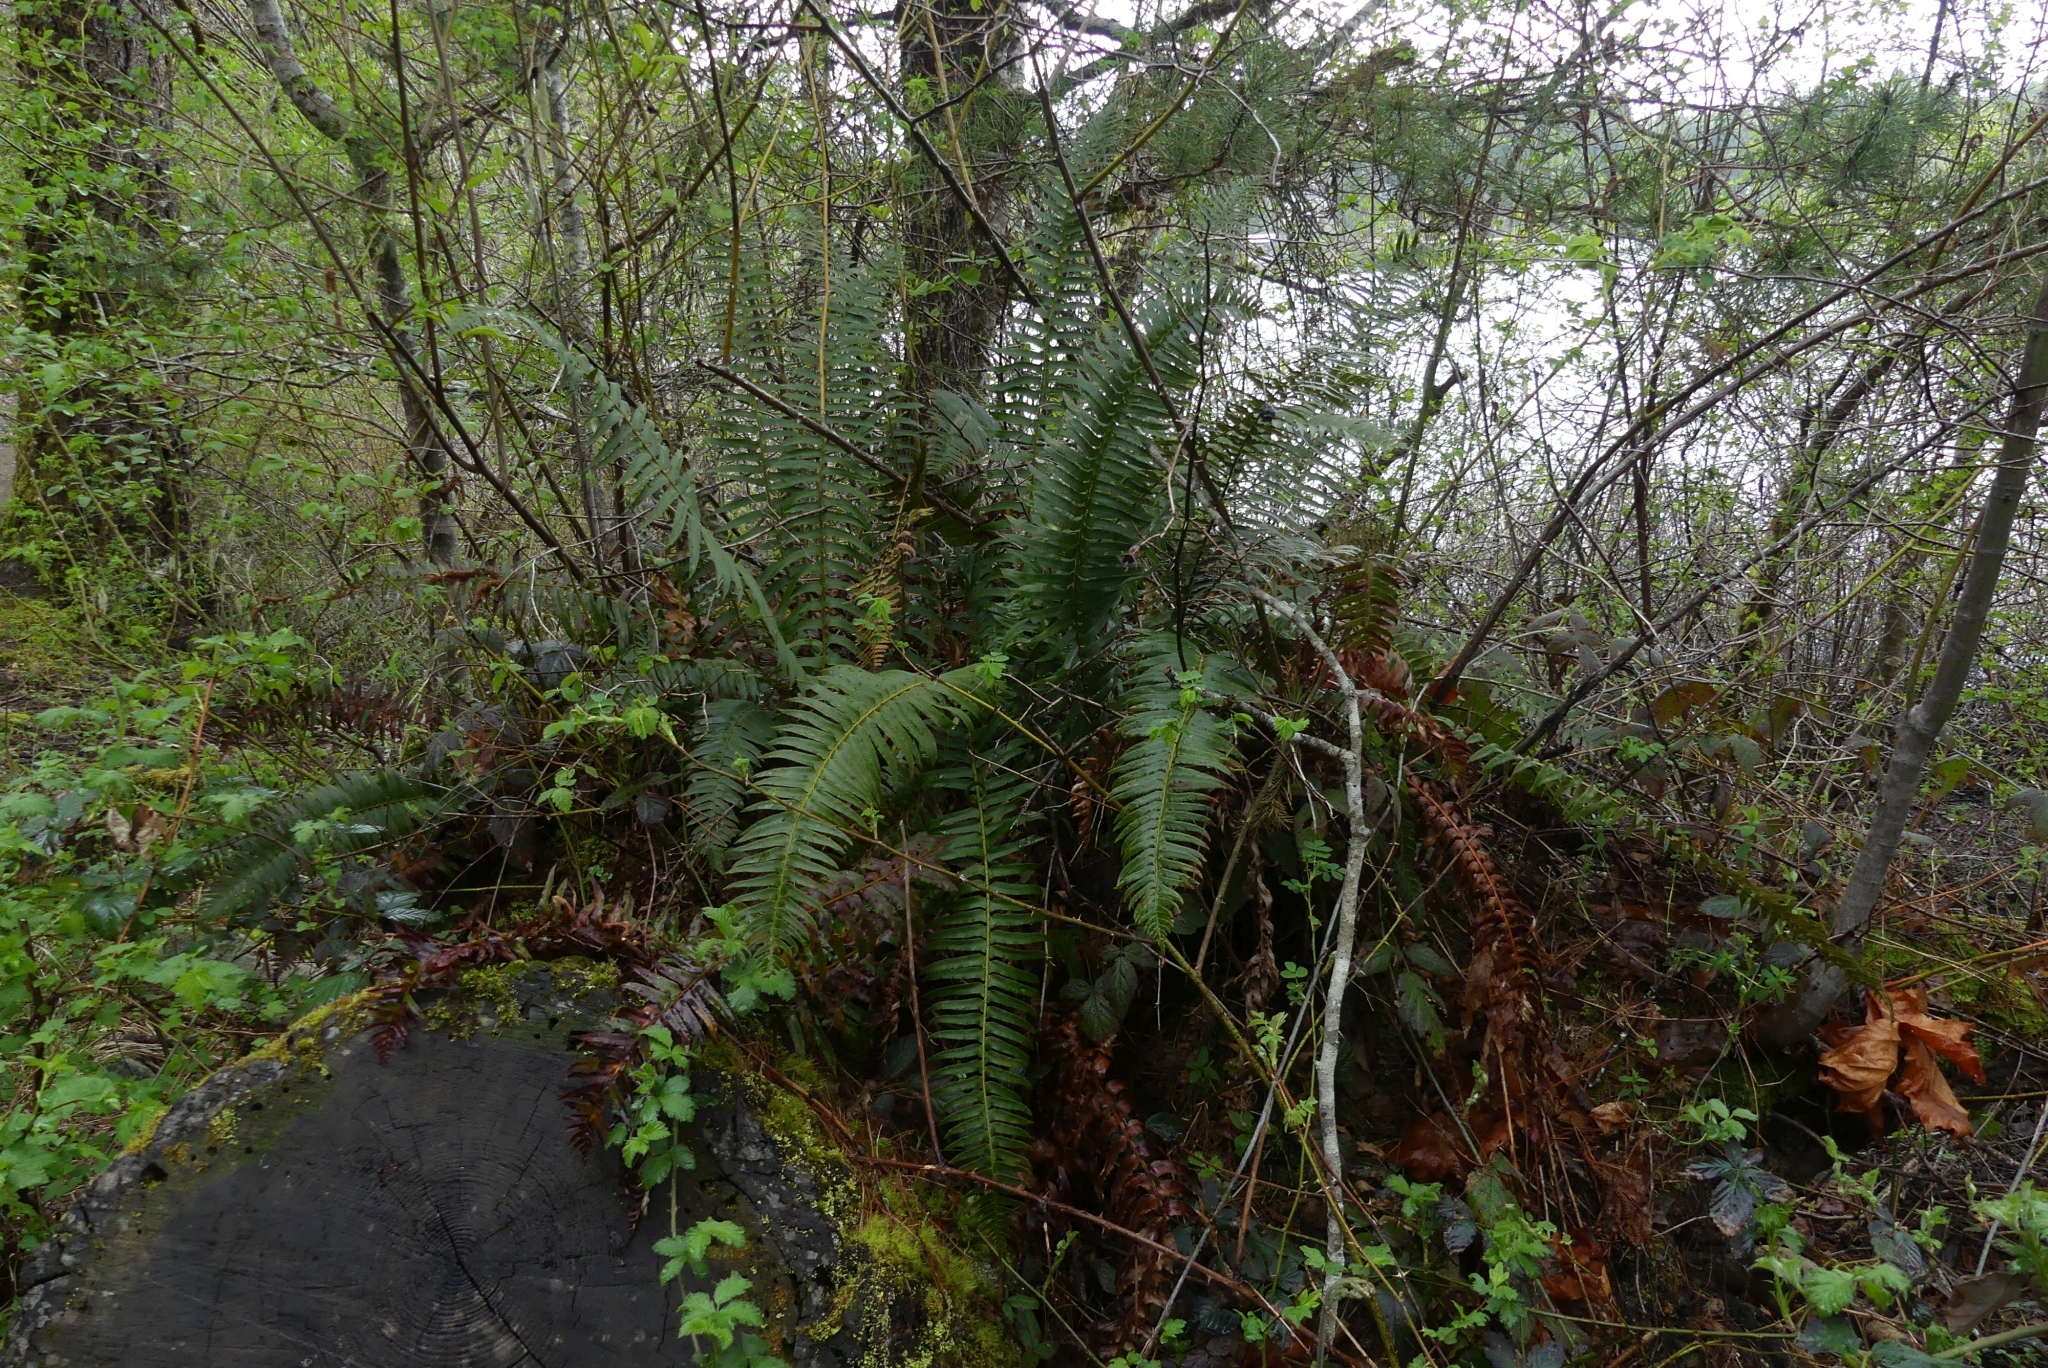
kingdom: Plantae
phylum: Tracheophyta
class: Polypodiopsida
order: Polypodiales
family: Dryopteridaceae
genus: Polystichum
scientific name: Polystichum munitum
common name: Western sword-fern
